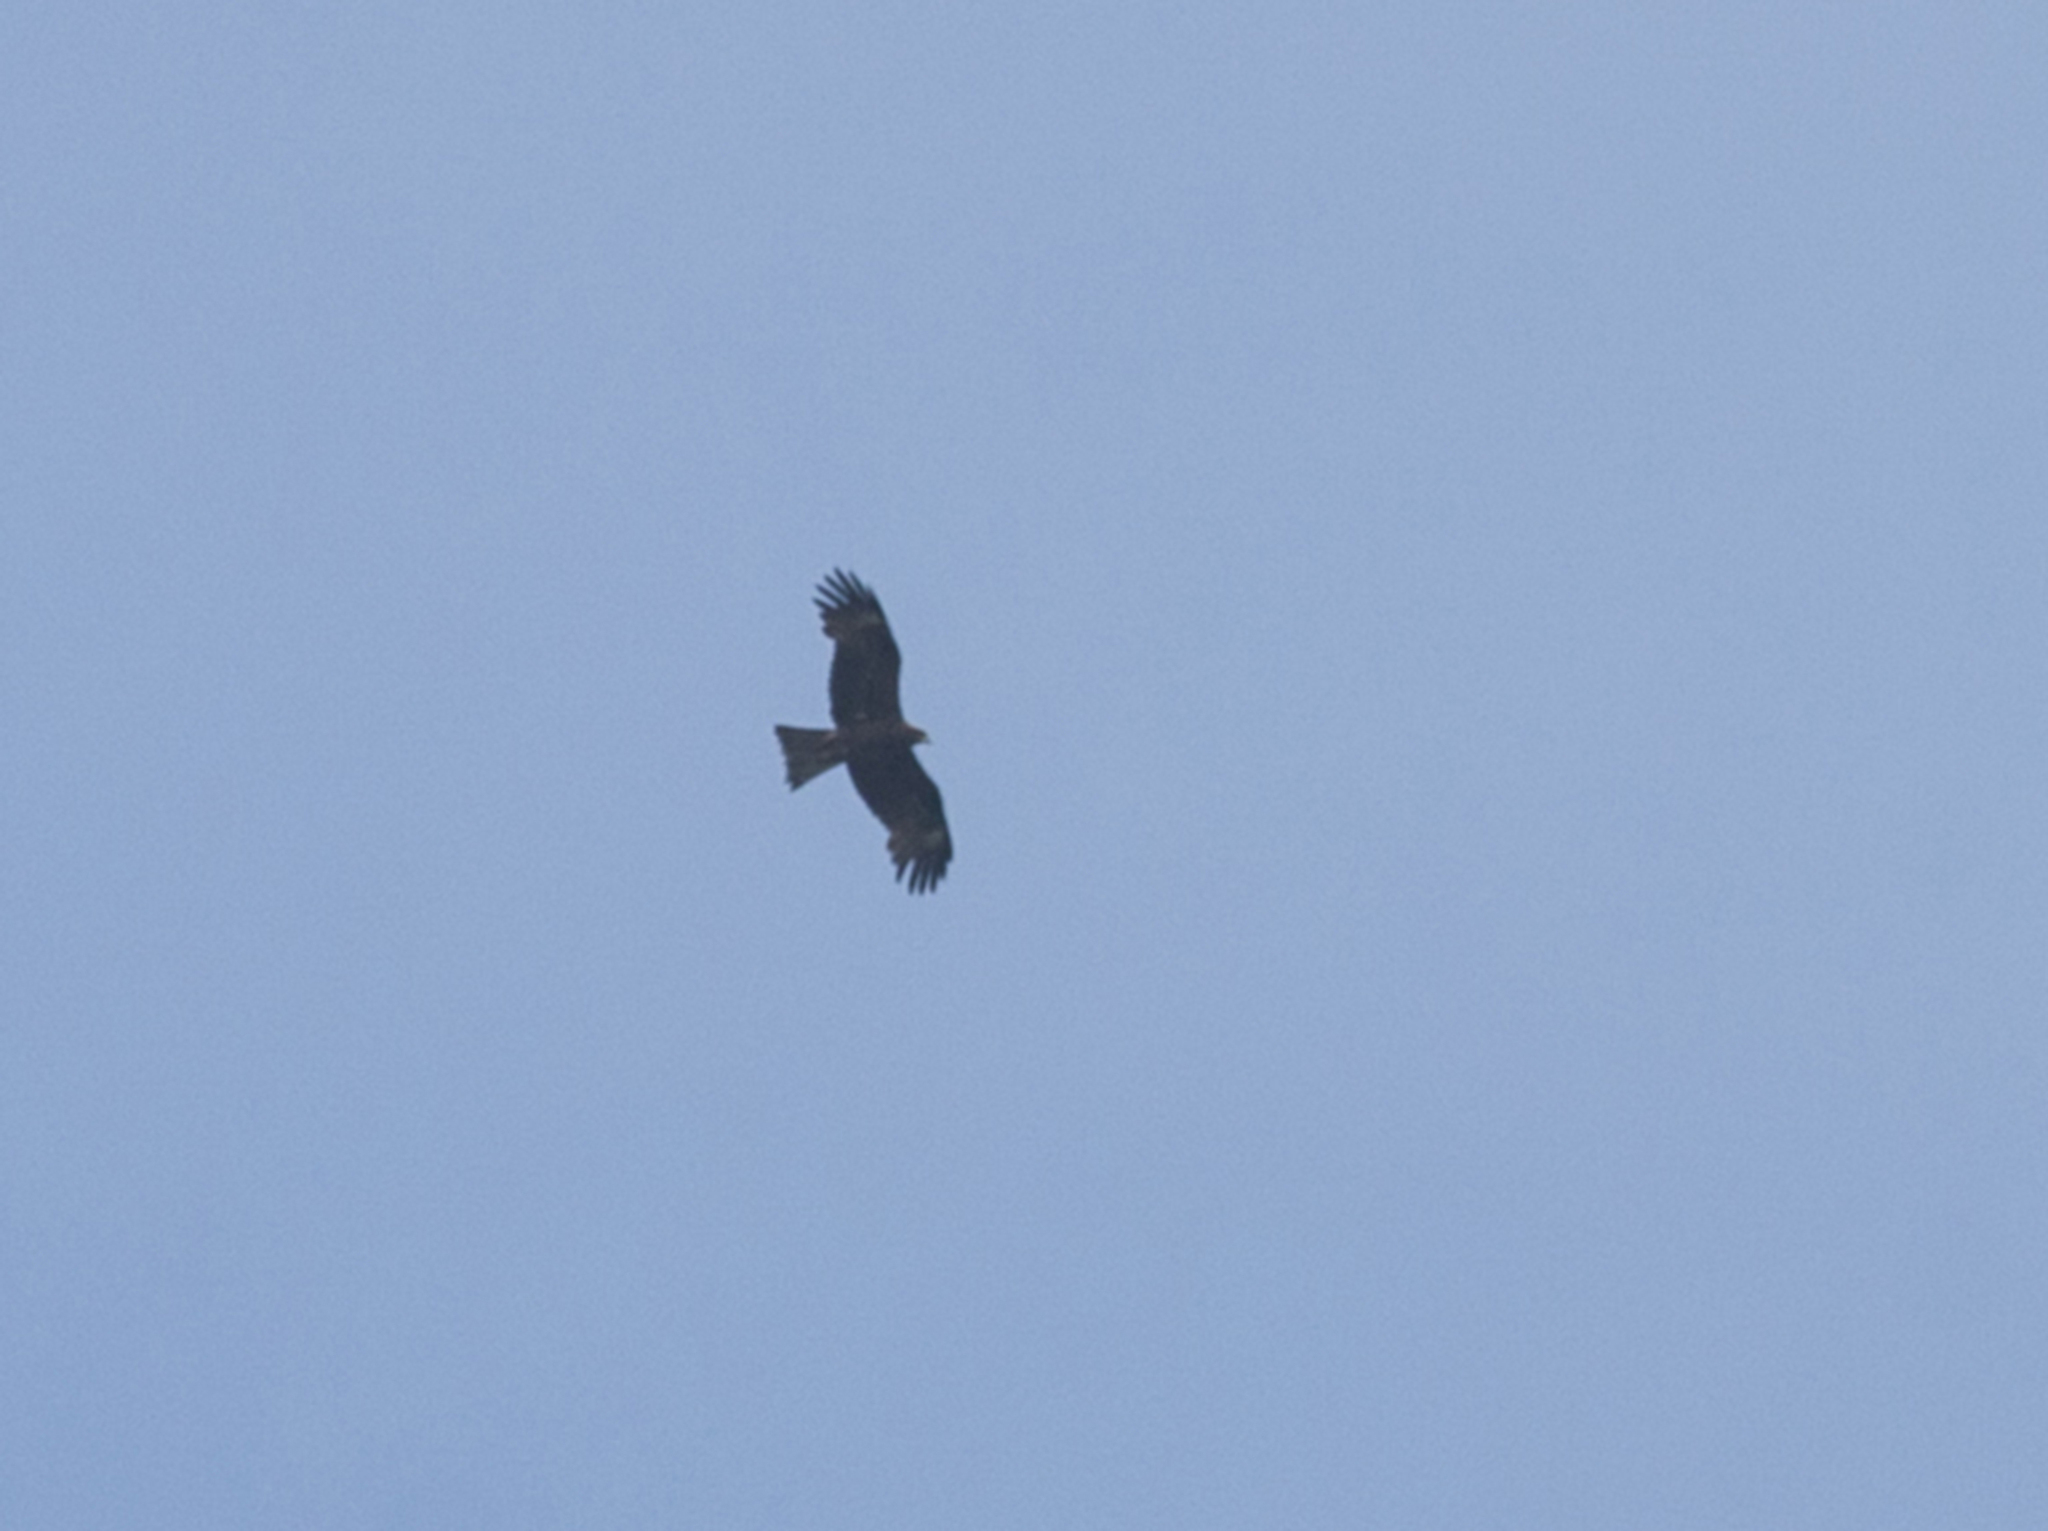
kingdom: Animalia
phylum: Chordata
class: Aves
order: Accipitriformes
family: Accipitridae
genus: Milvus
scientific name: Milvus migrans
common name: Black kite
